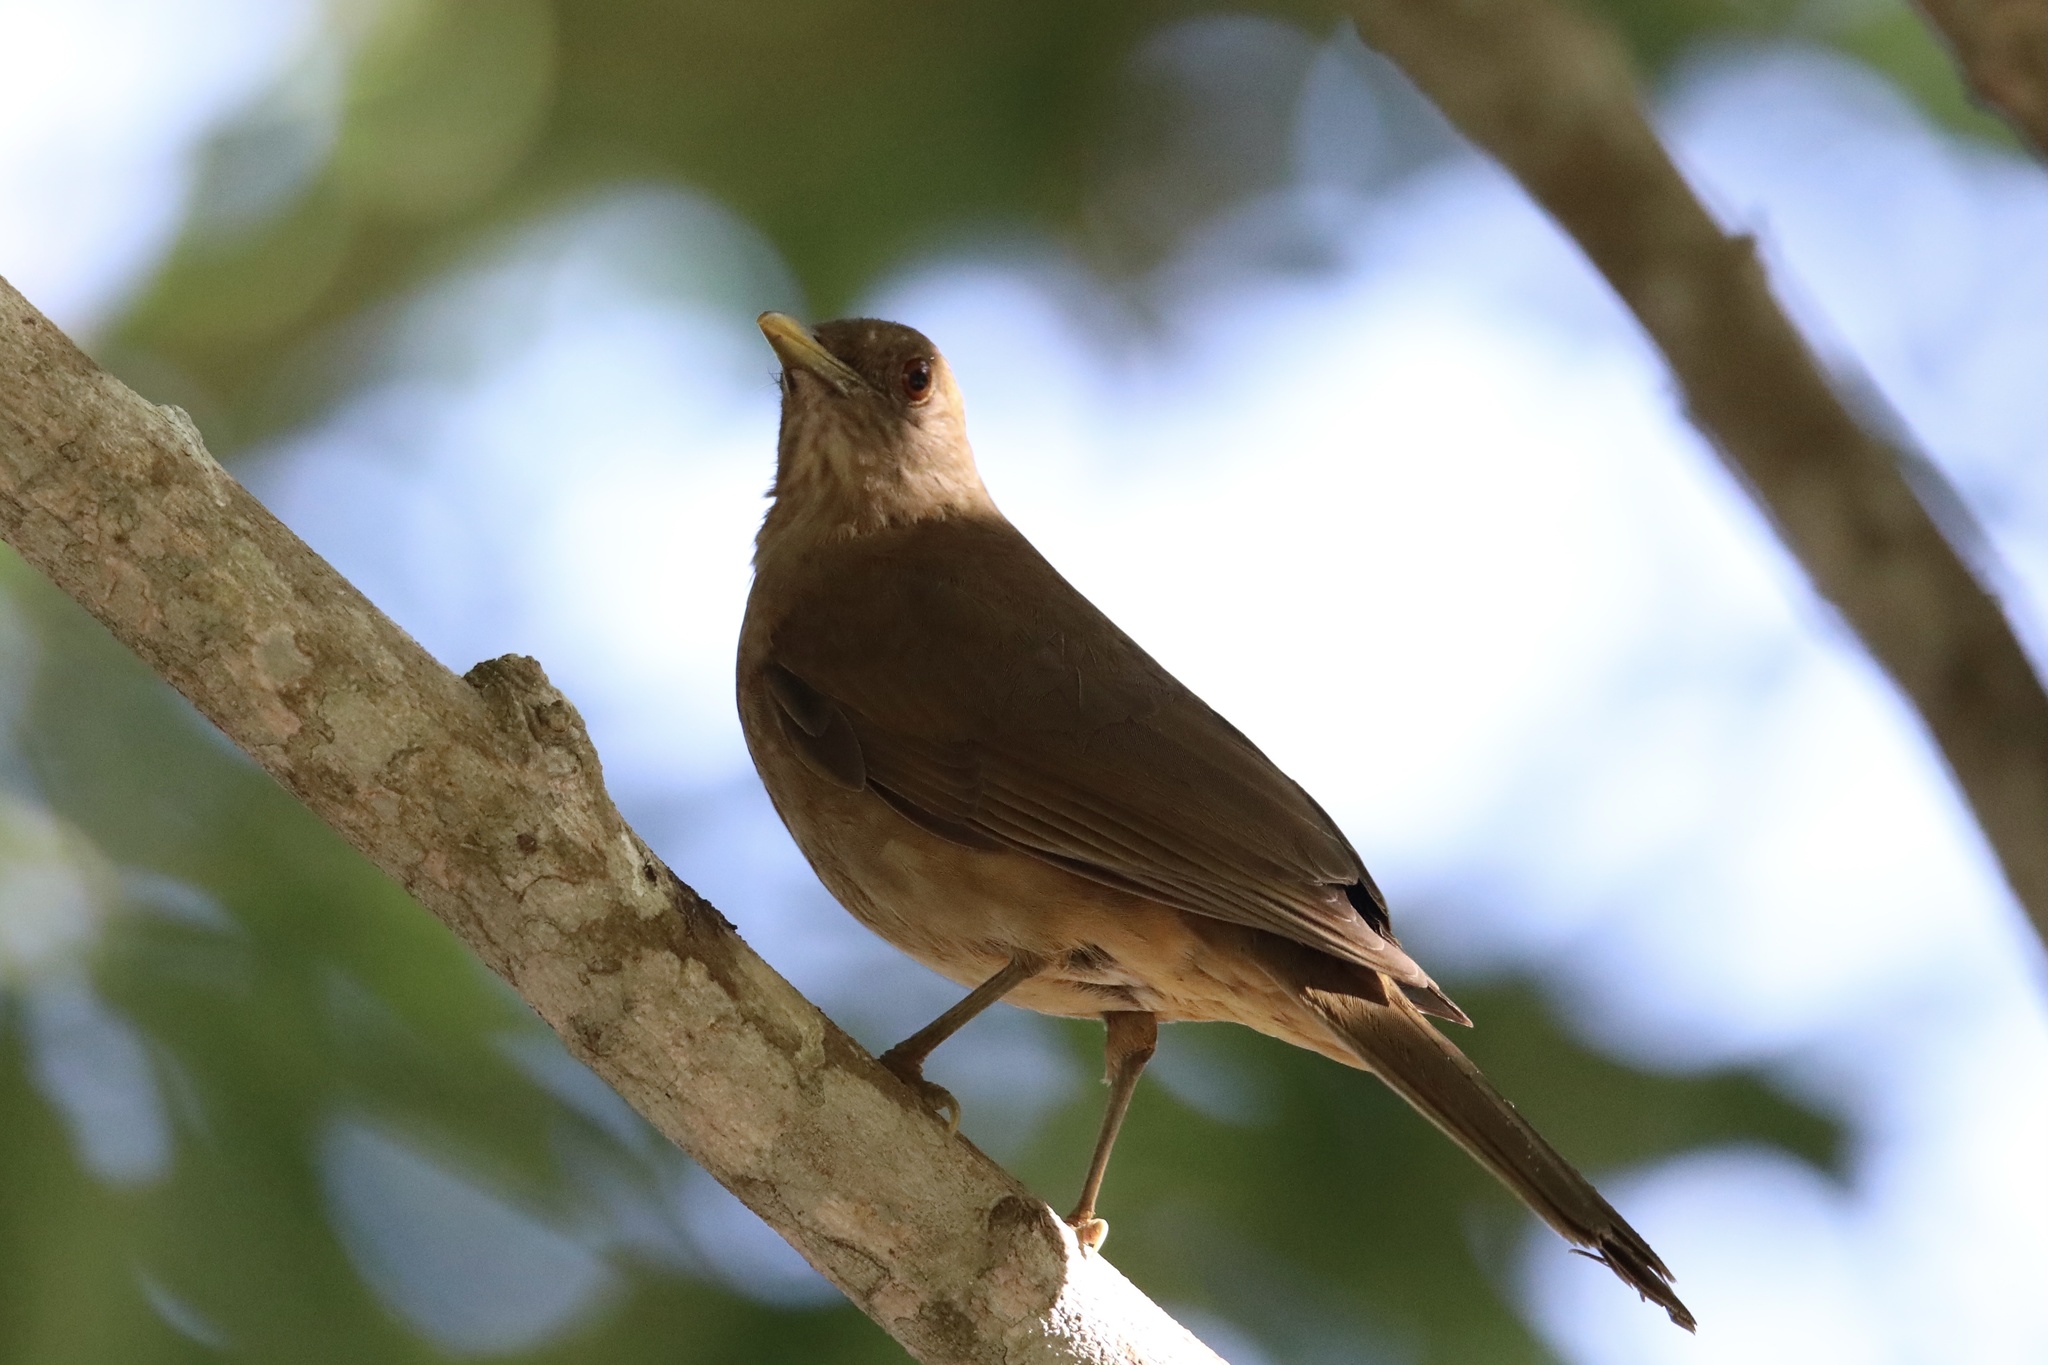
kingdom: Animalia
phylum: Chordata
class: Aves
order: Passeriformes
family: Turdidae
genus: Turdus
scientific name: Turdus grayi
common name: Clay-colored thrush
